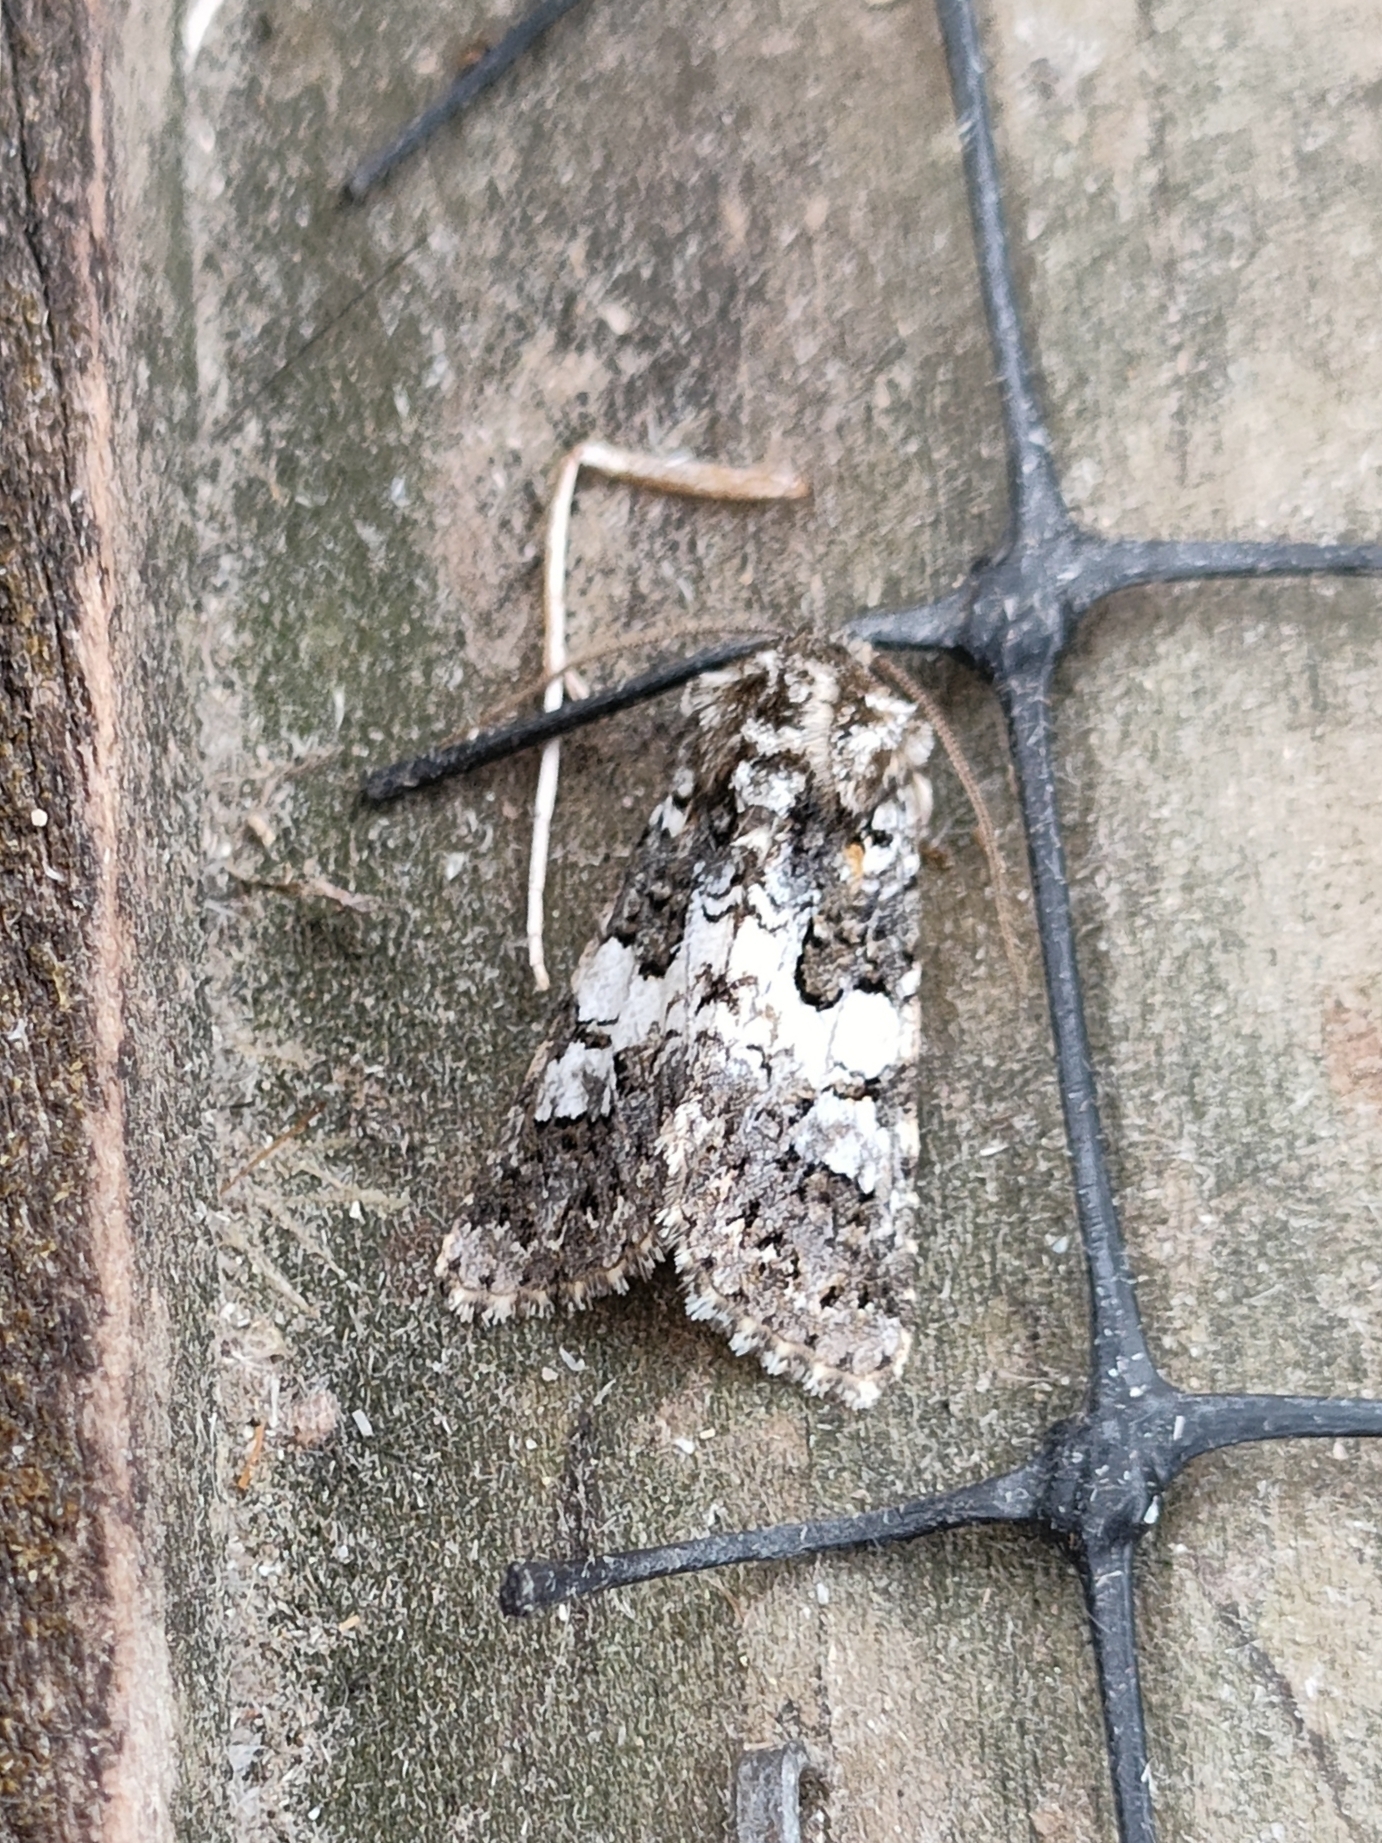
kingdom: Animalia
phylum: Arthropoda
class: Insecta
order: Lepidoptera
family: Noctuidae
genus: Hadena
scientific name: Hadena compta
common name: Varied coronet
